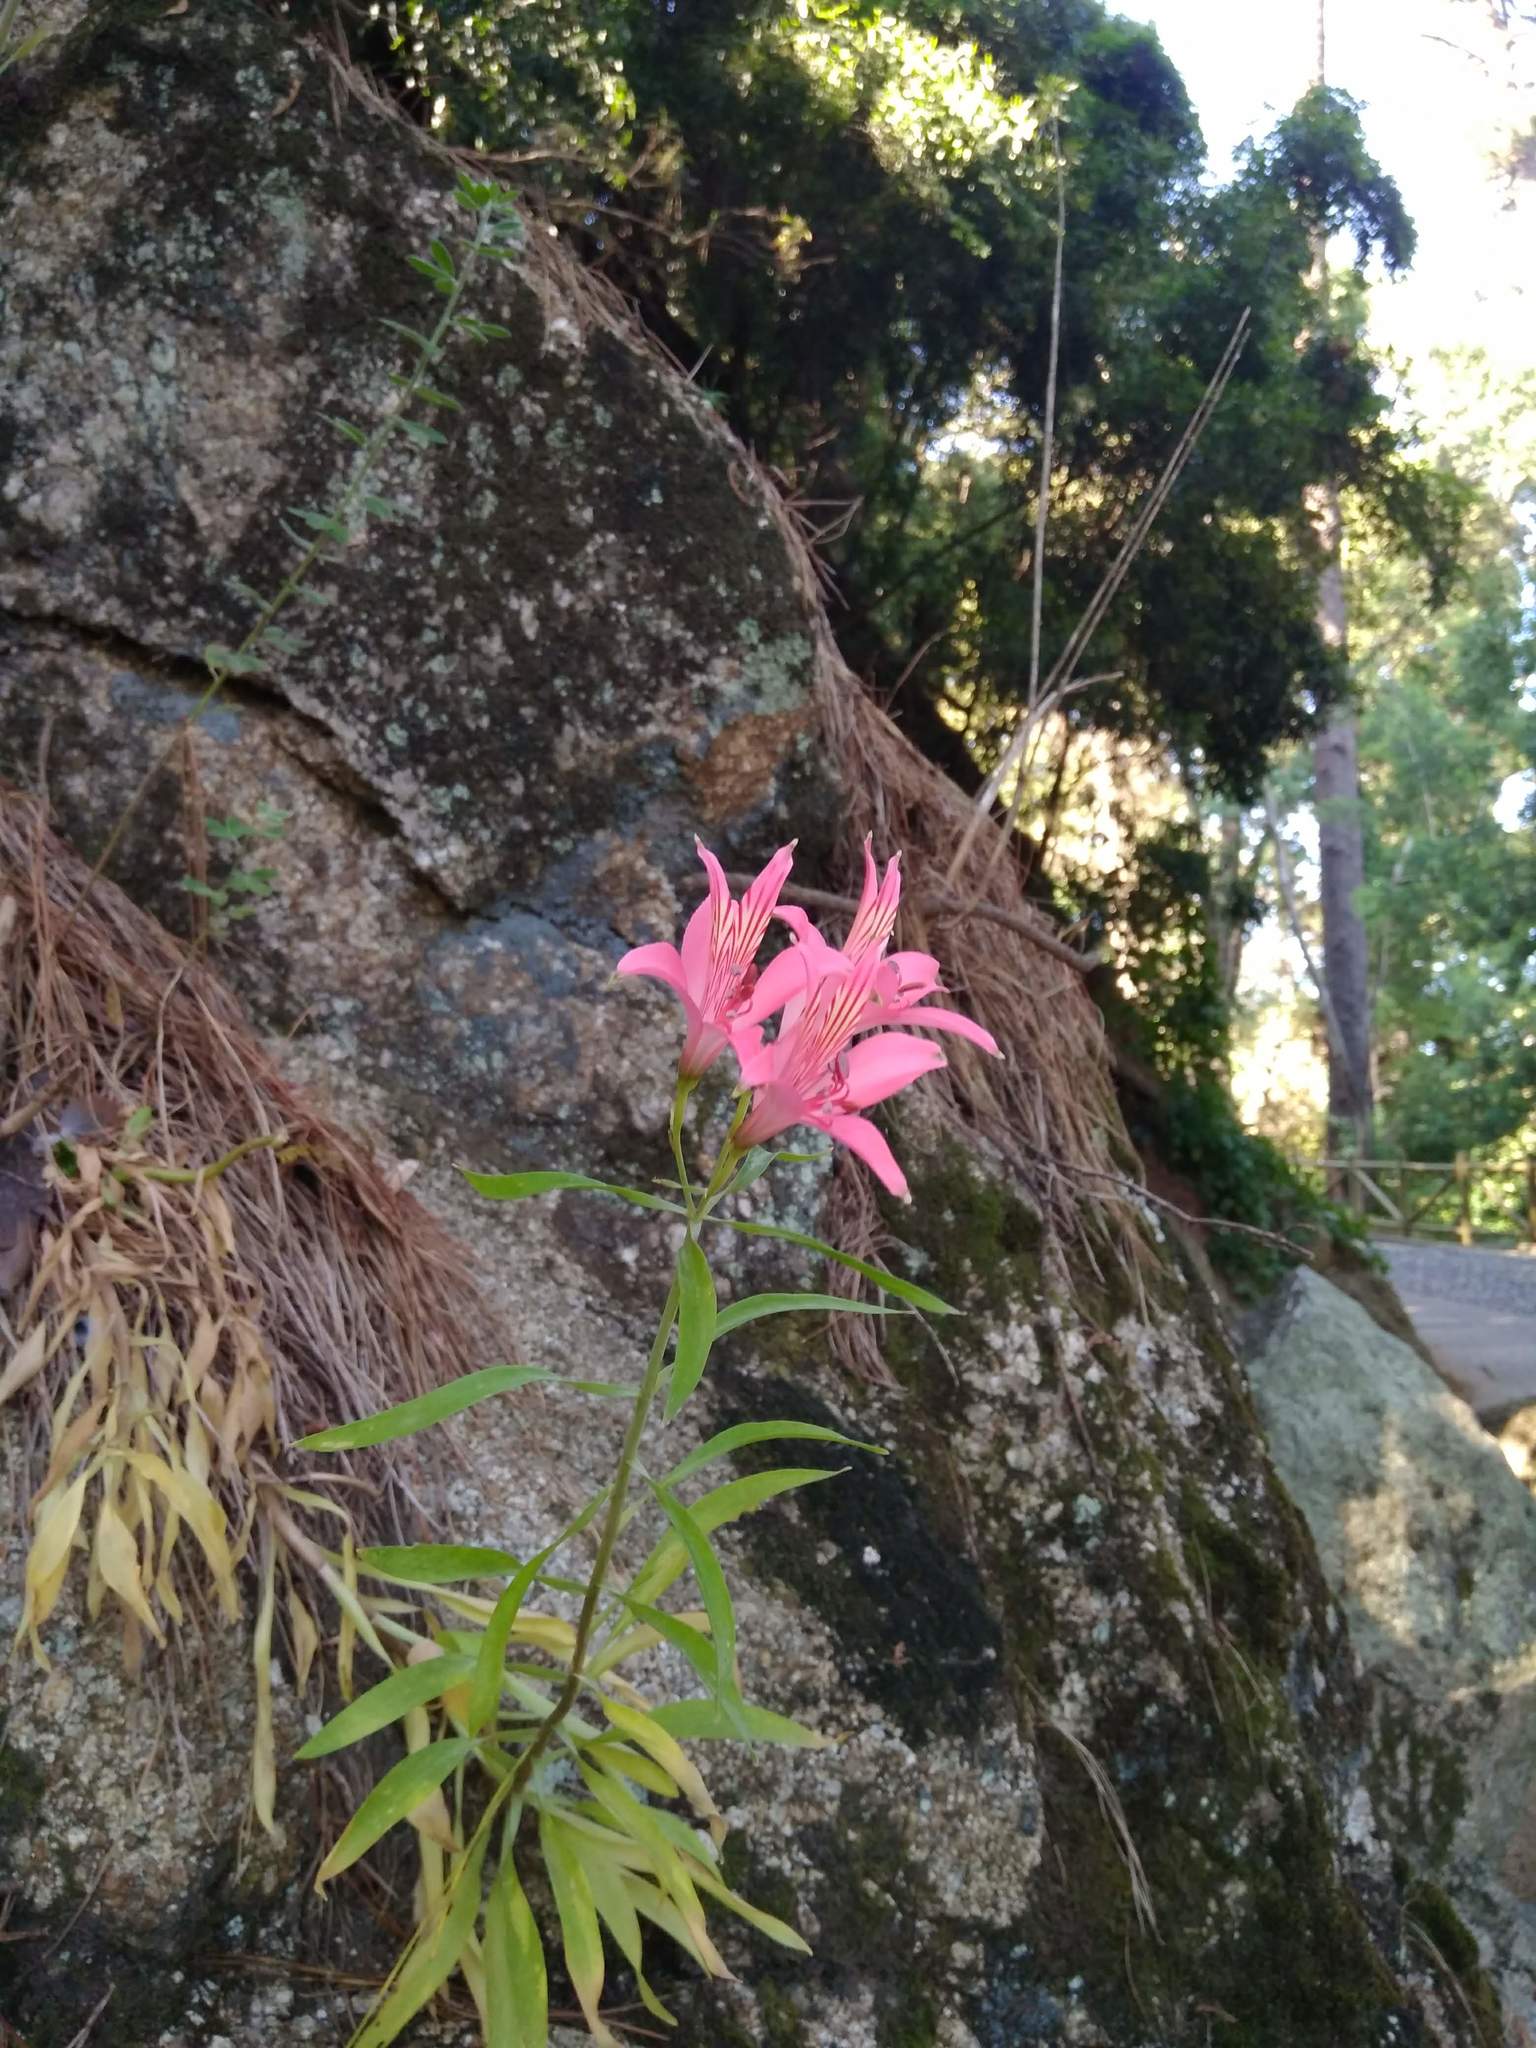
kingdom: Plantae
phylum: Tracheophyta
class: Liliopsida
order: Liliales
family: Alstroemeriaceae
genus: Alstroemeria
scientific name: Alstroemeria ligtu
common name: St. martin's-flower
